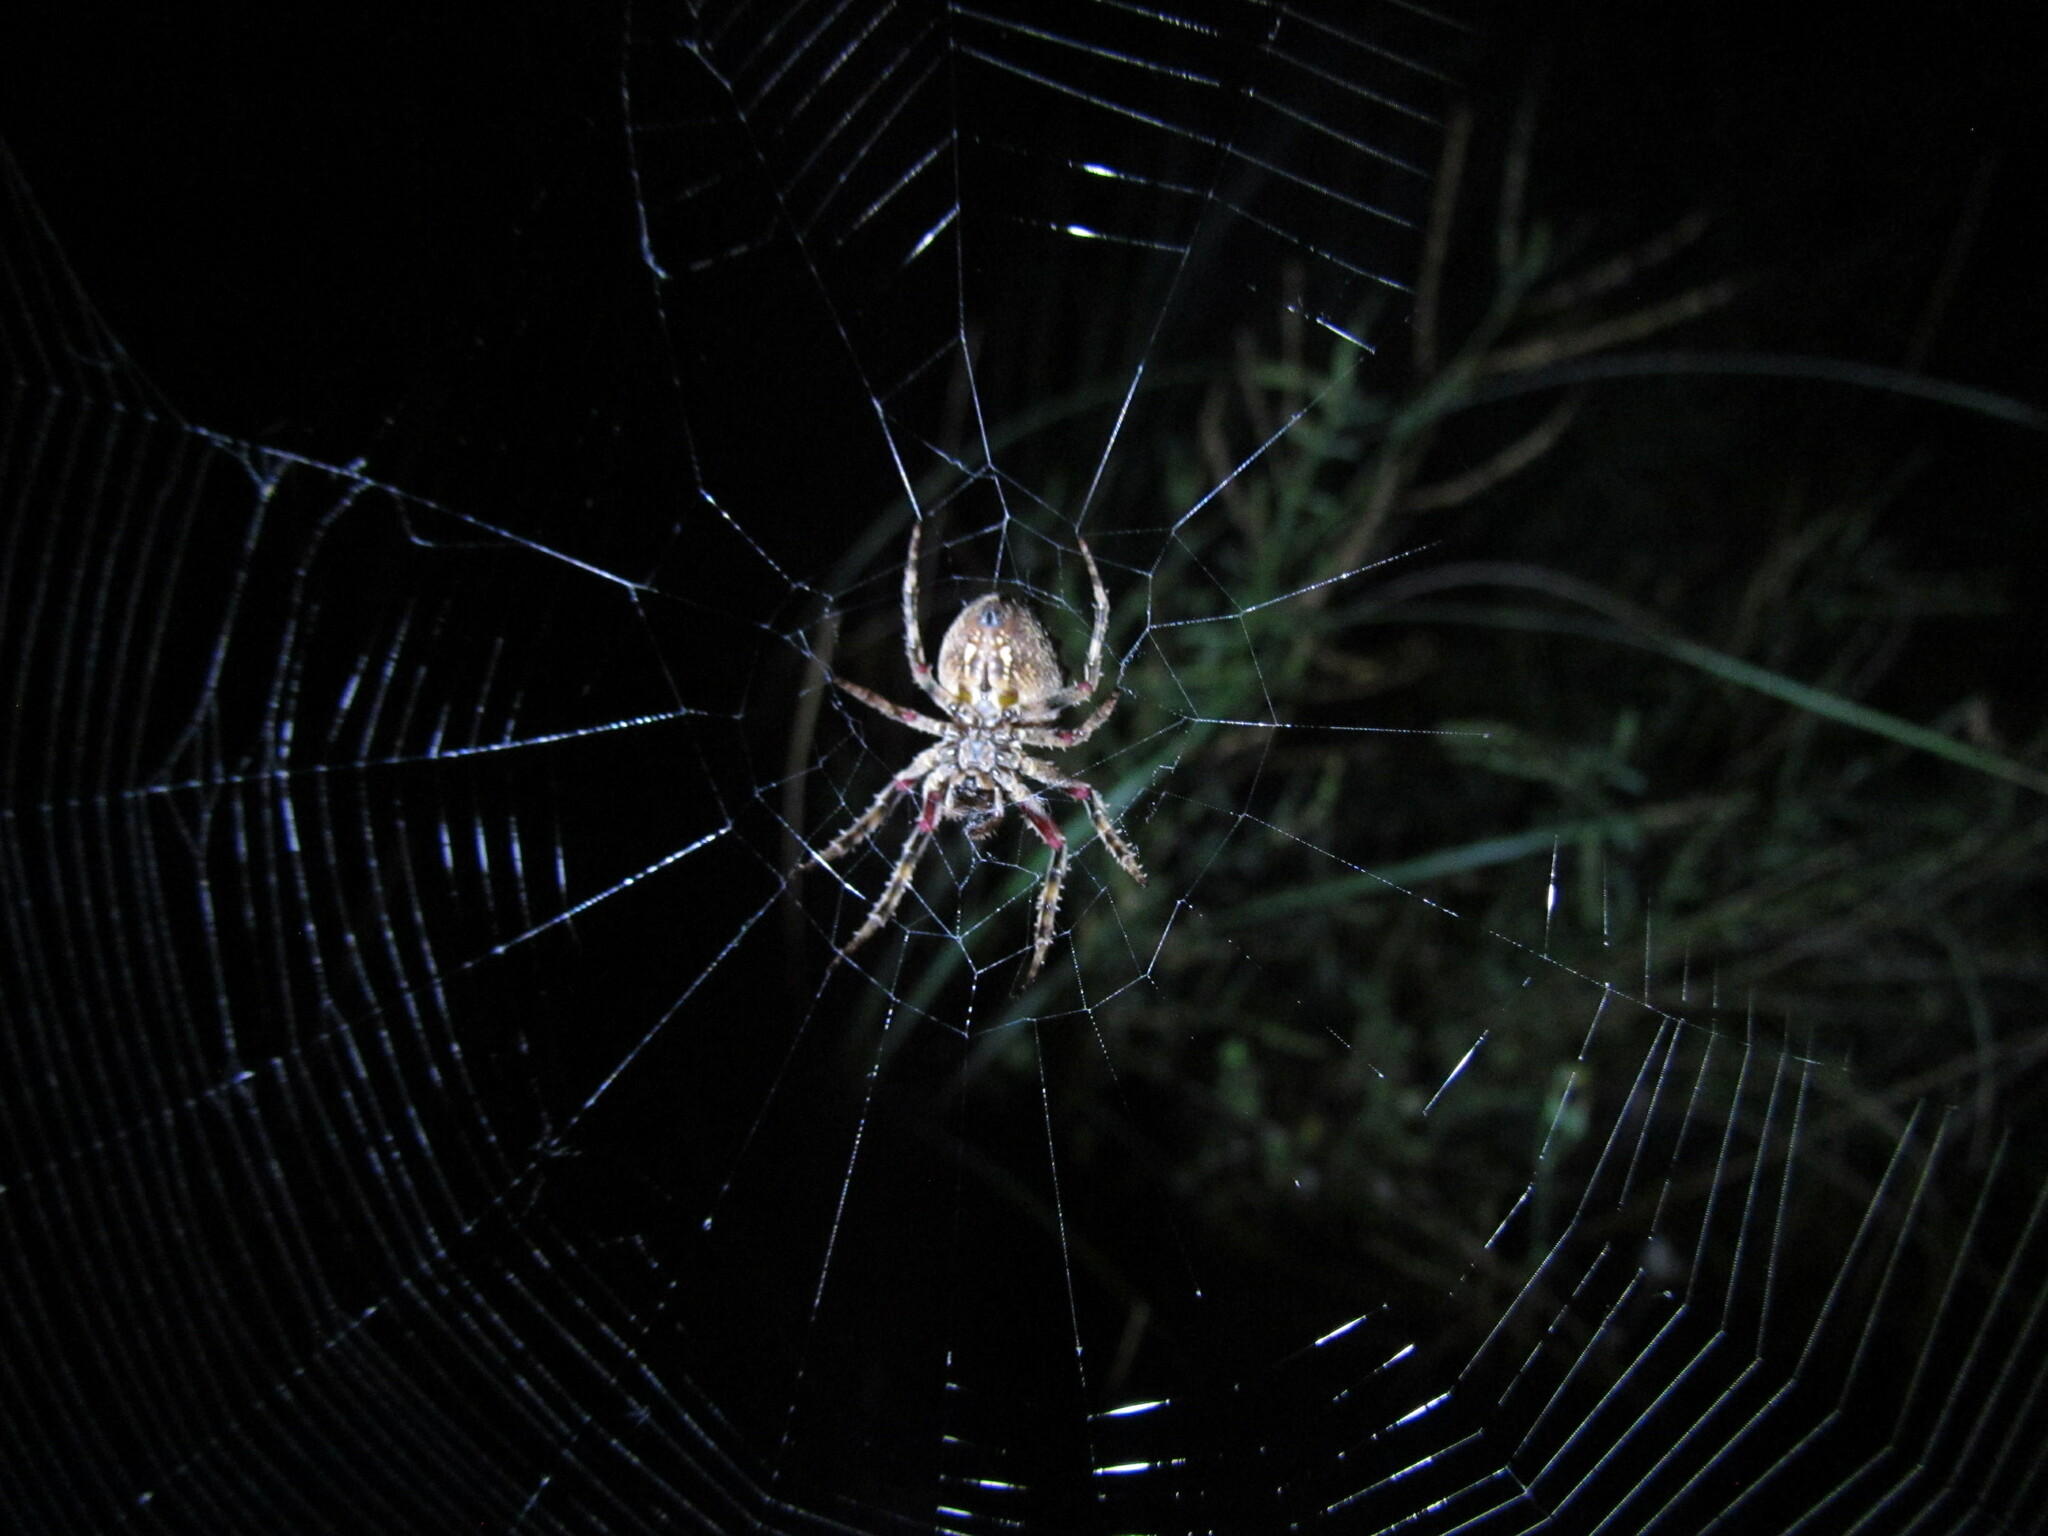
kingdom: Animalia
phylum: Arthropoda
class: Arachnida
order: Araneae
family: Araneidae
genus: Parawixia
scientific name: Parawixia audax
